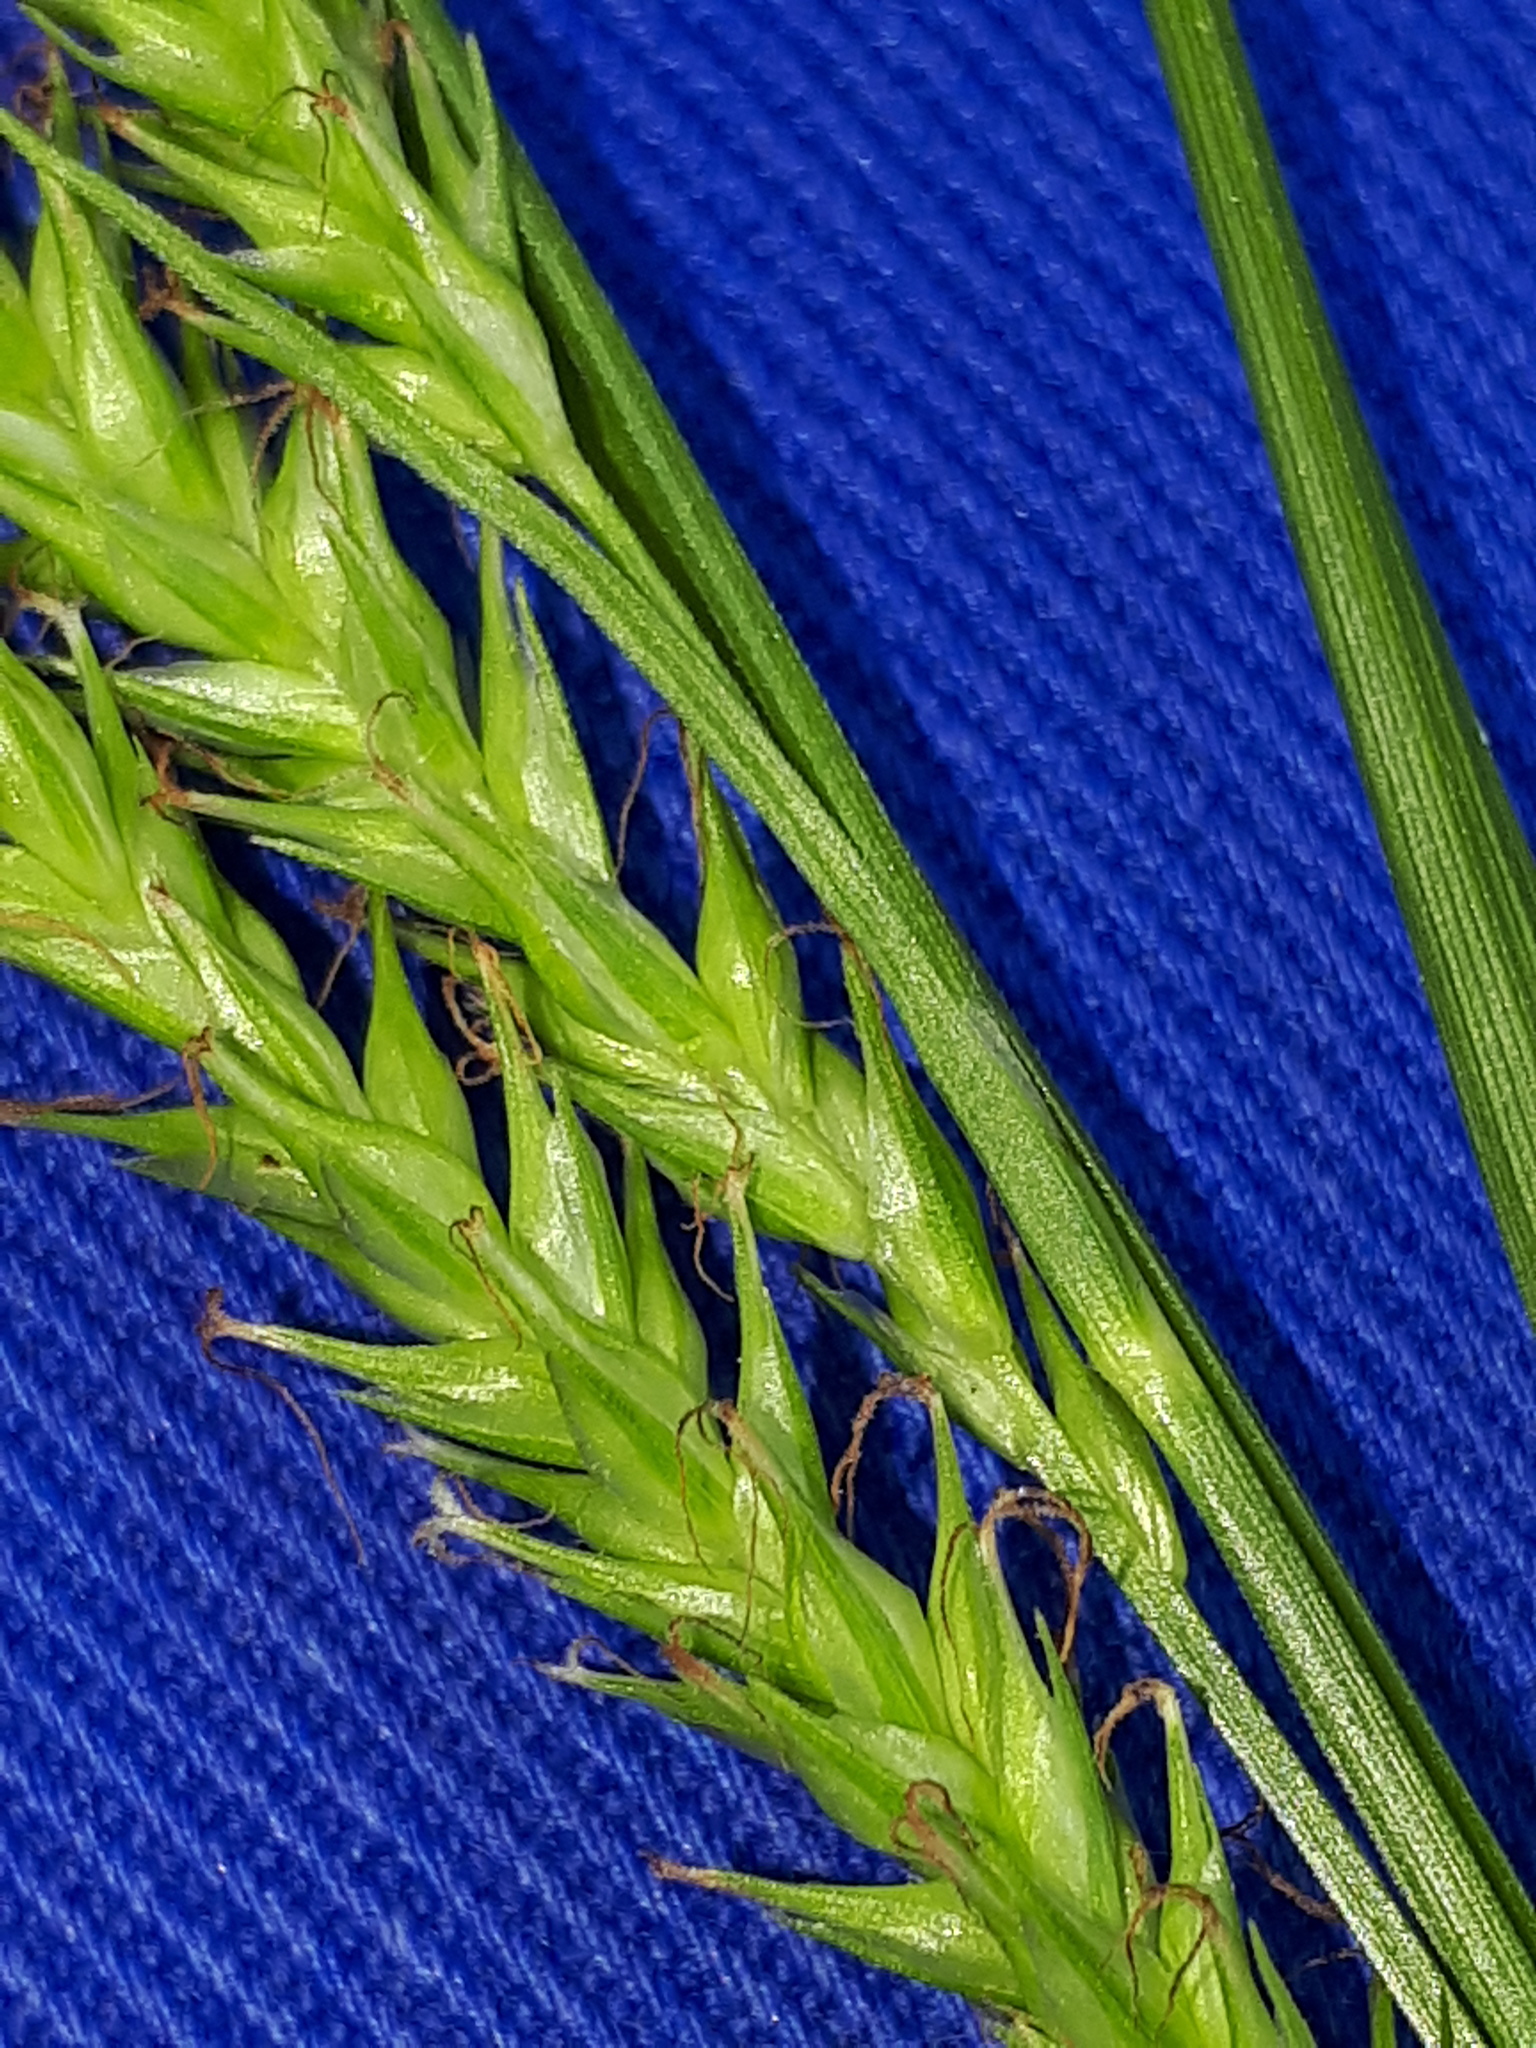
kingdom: Plantae
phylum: Tracheophyta
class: Liliopsida
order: Poales
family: Cyperaceae
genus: Carex
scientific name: Carex sylvatica
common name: Wood-sedge
